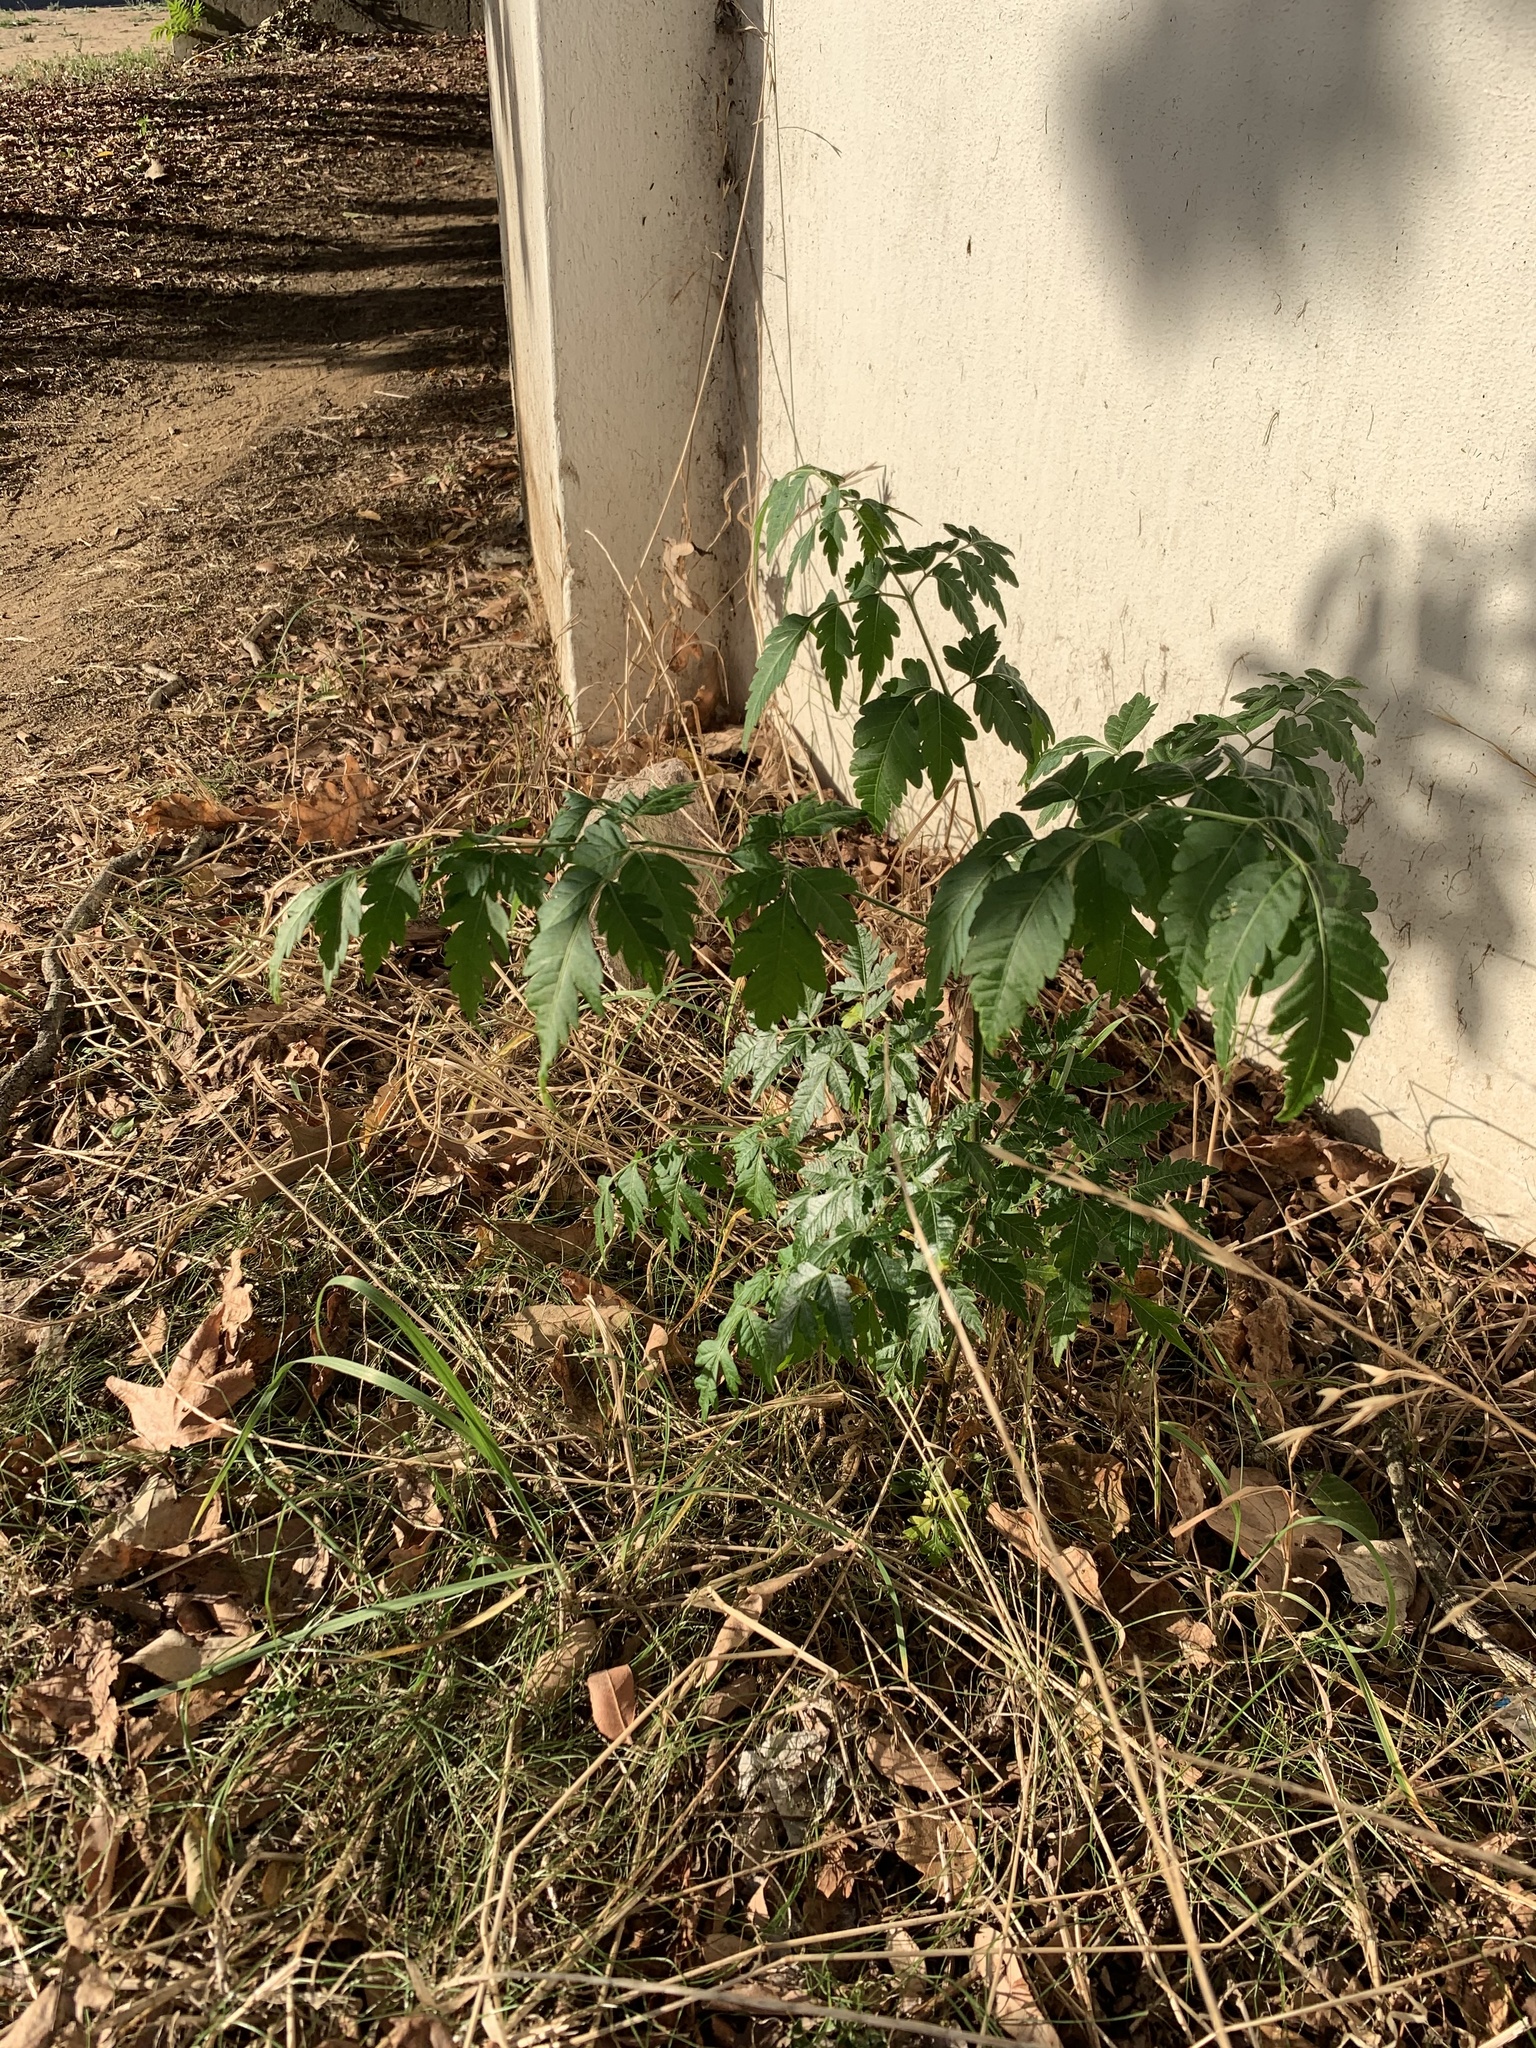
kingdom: Plantae
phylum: Tracheophyta
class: Magnoliopsida
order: Sapindales
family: Meliaceae
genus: Melia
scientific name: Melia azedarach
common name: Chinaberrytree
